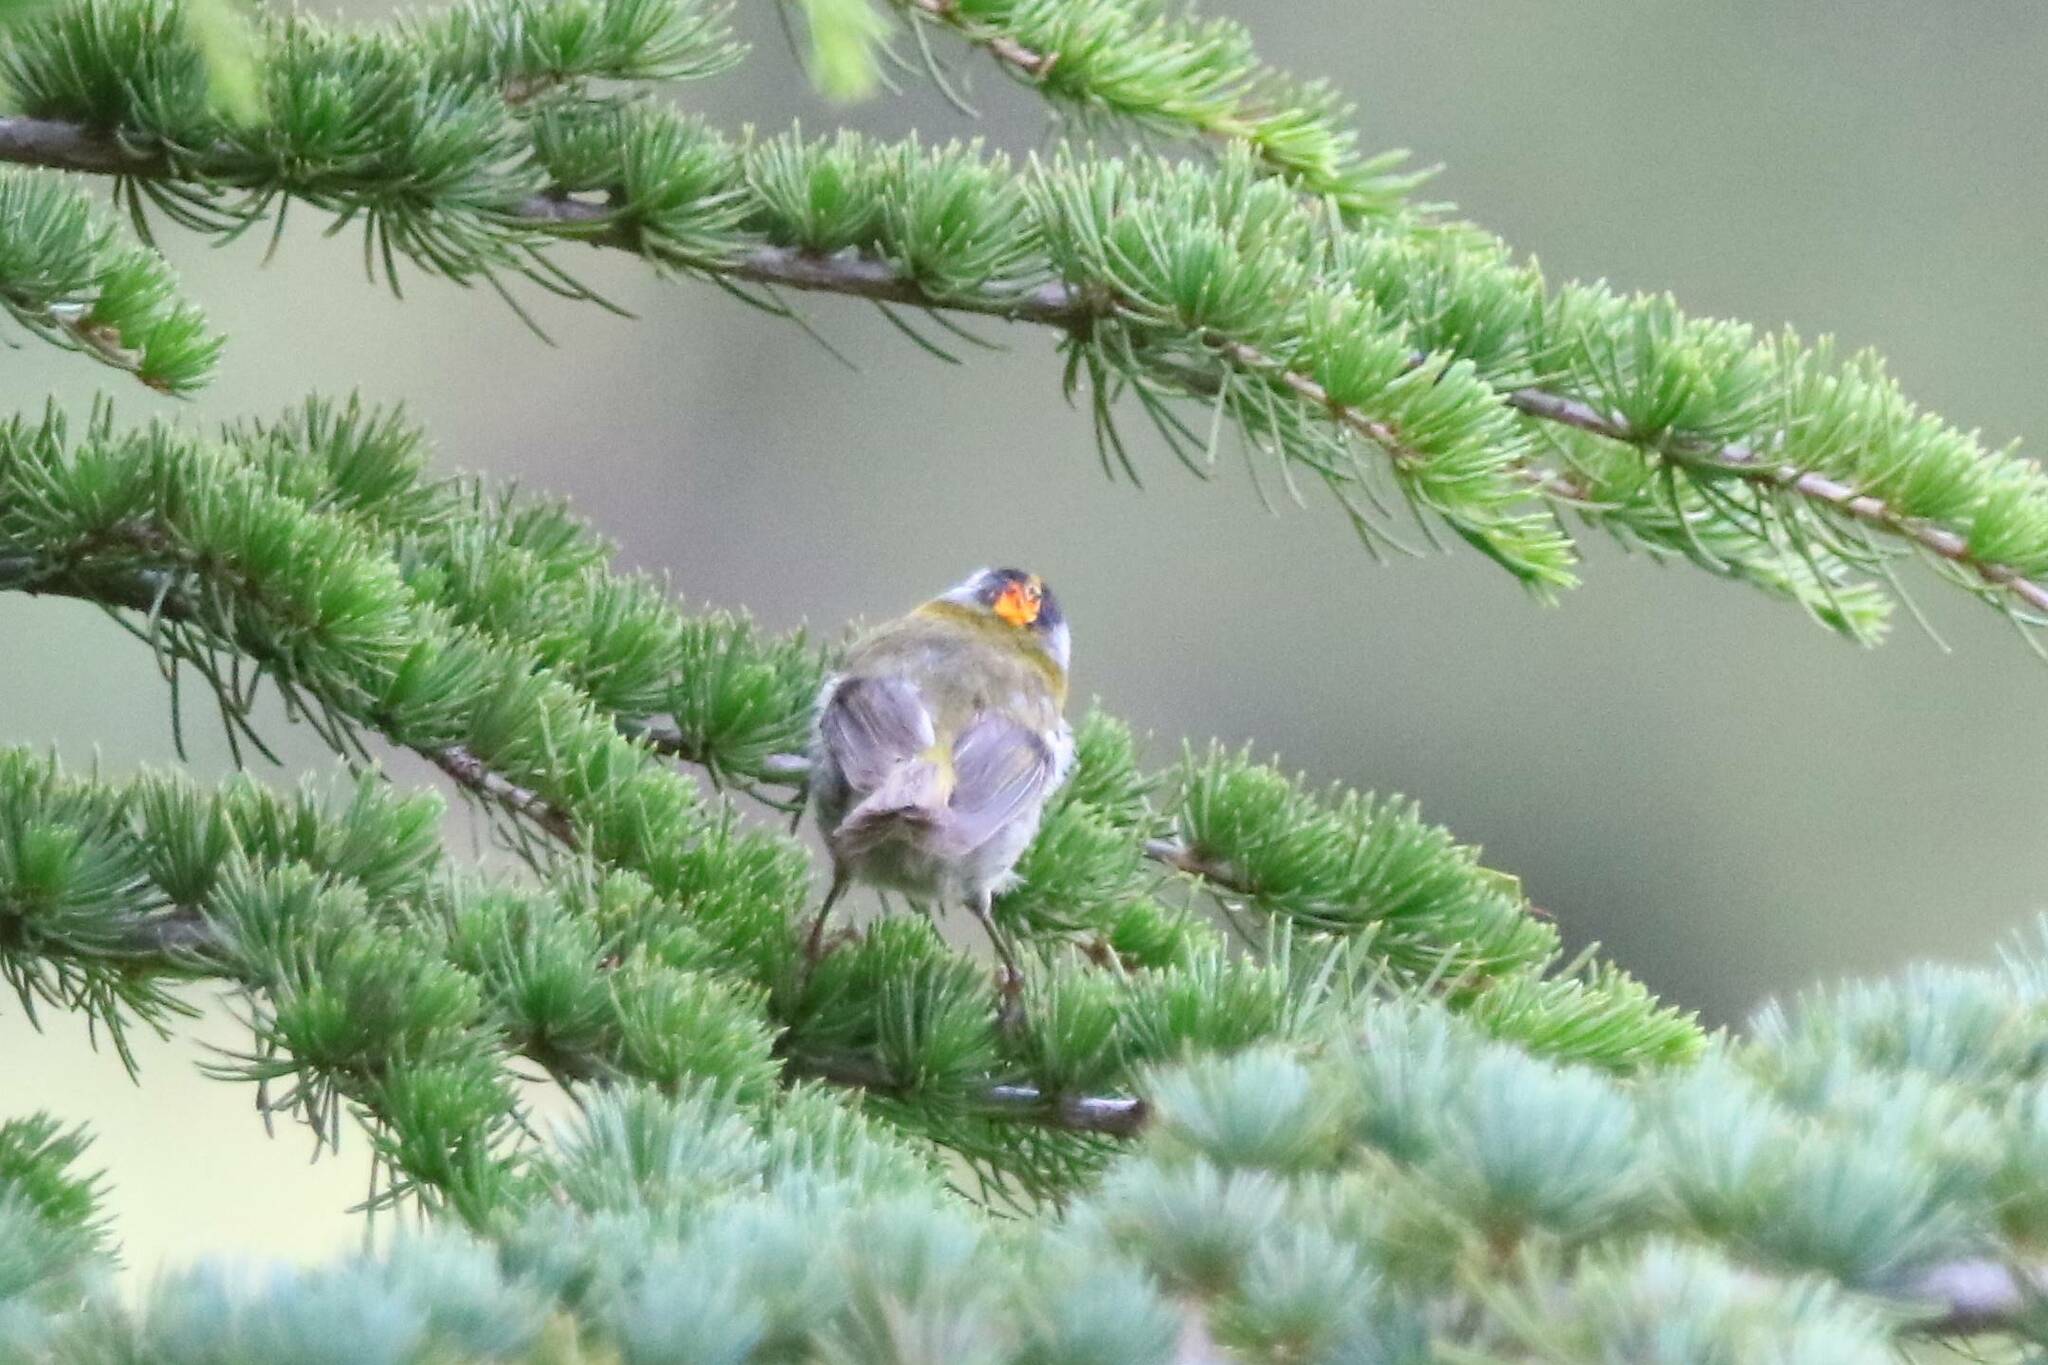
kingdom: Animalia
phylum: Chordata
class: Aves
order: Passeriformes
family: Regulidae
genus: Regulus
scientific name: Regulus ignicapilla
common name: Firecrest
